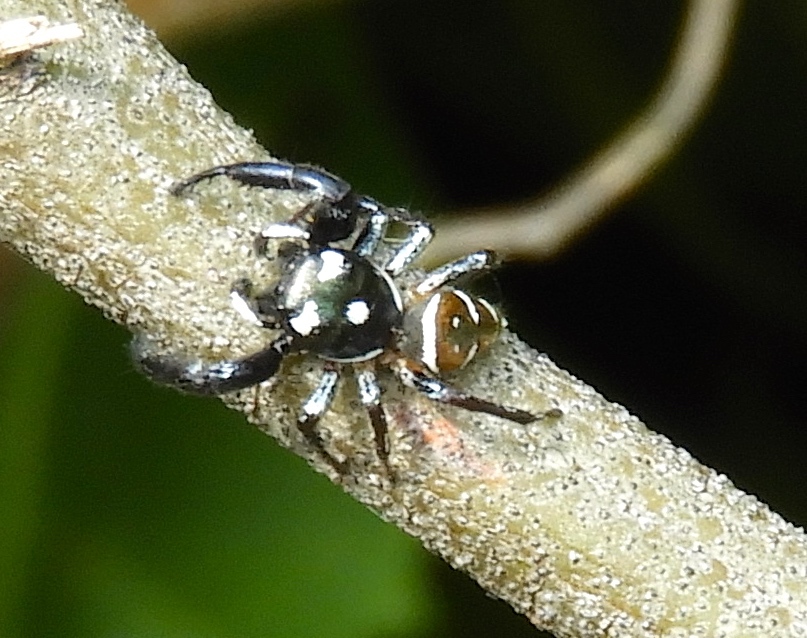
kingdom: Animalia
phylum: Arthropoda
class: Arachnida
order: Araneae
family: Salticidae
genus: Sassacus
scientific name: Sassacus
